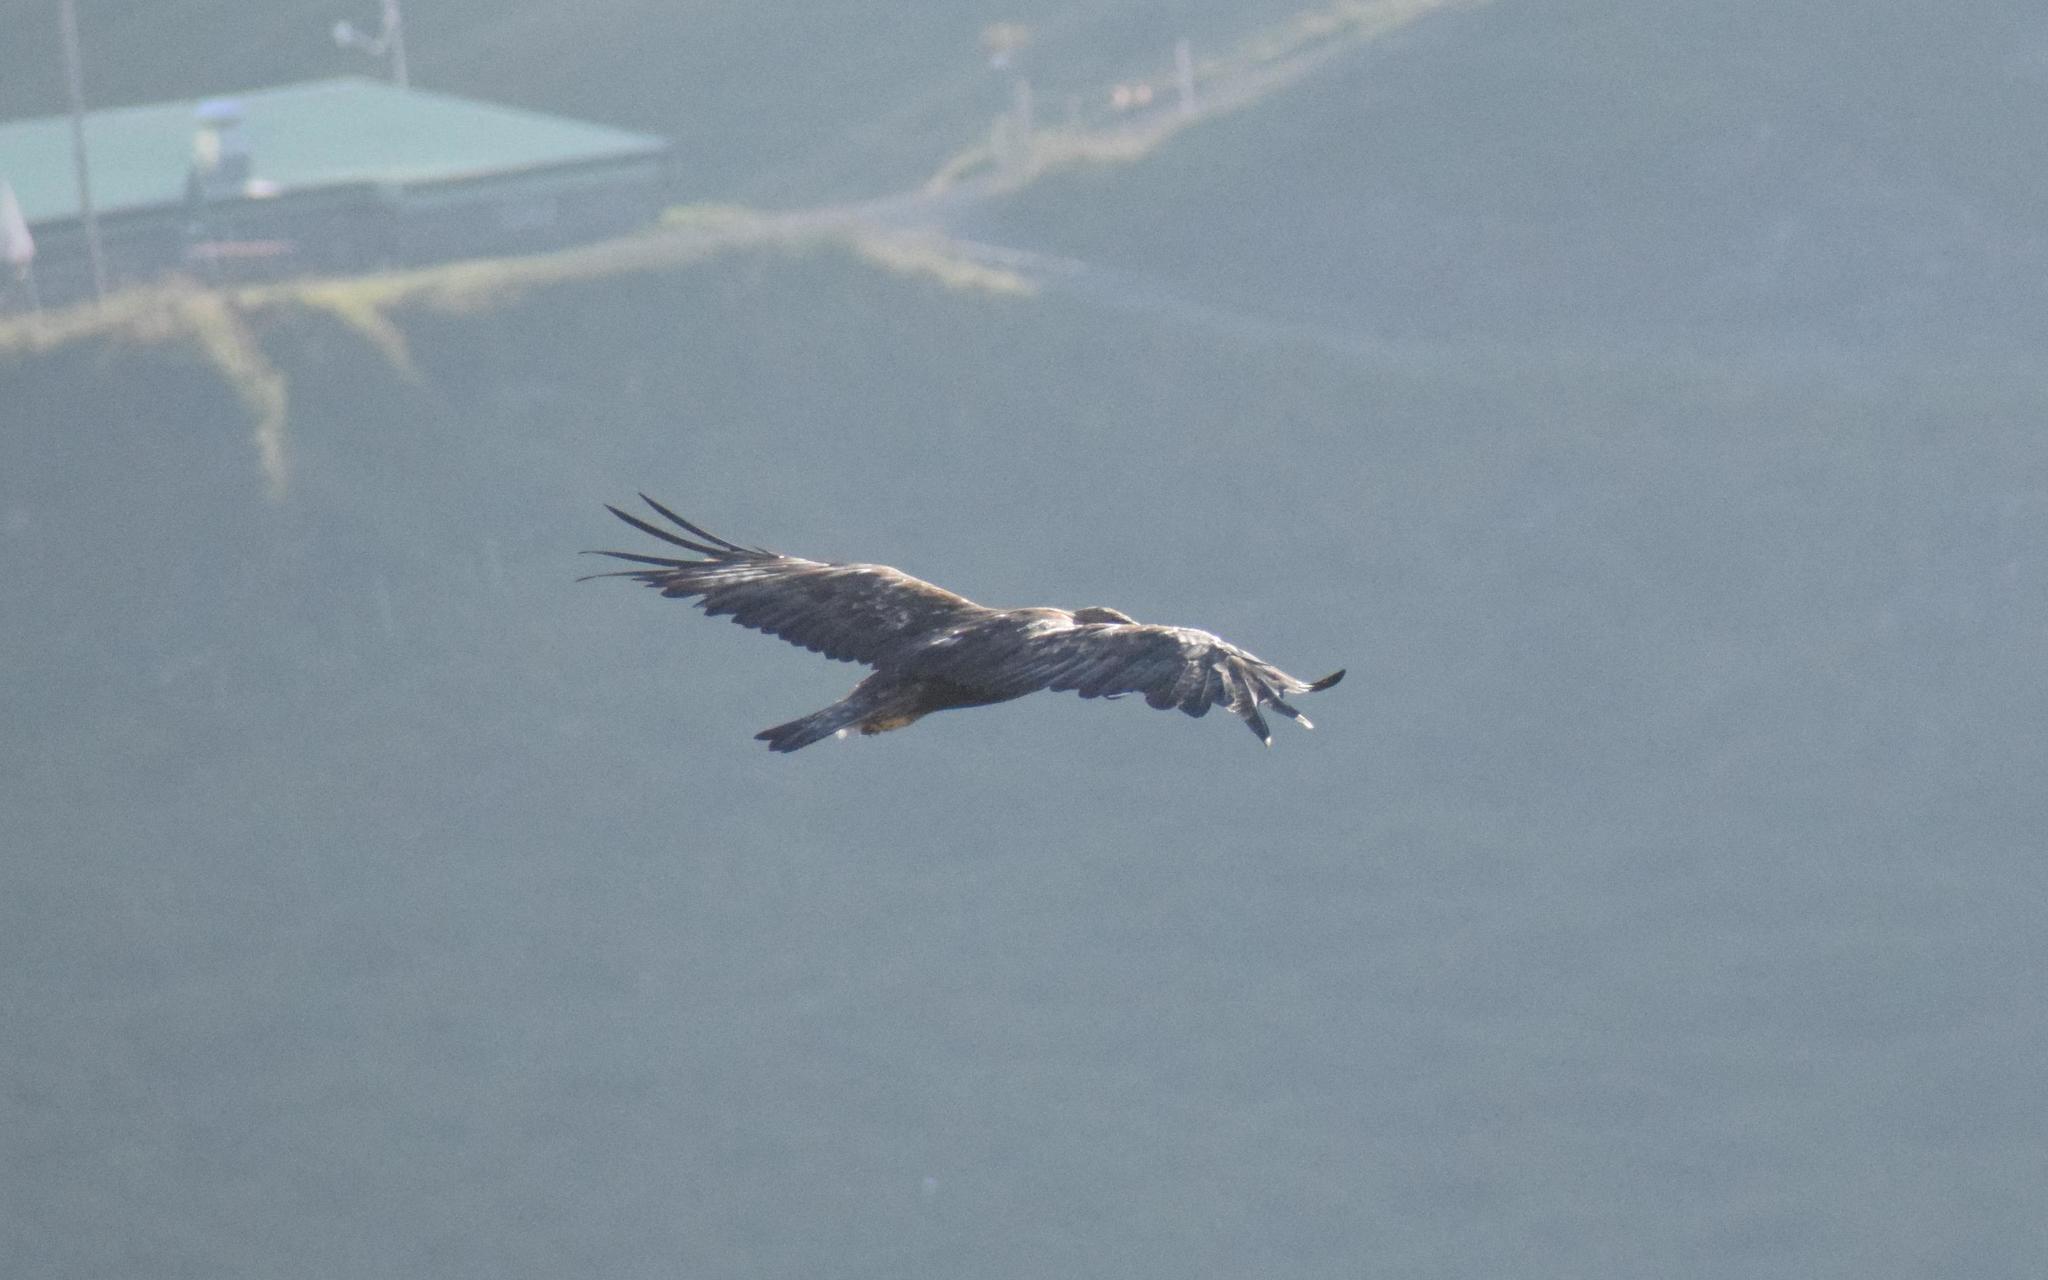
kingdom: Animalia
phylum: Chordata
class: Aves
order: Accipitriformes
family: Accipitridae
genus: Aquila
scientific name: Aquila chrysaetos
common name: Golden eagle
